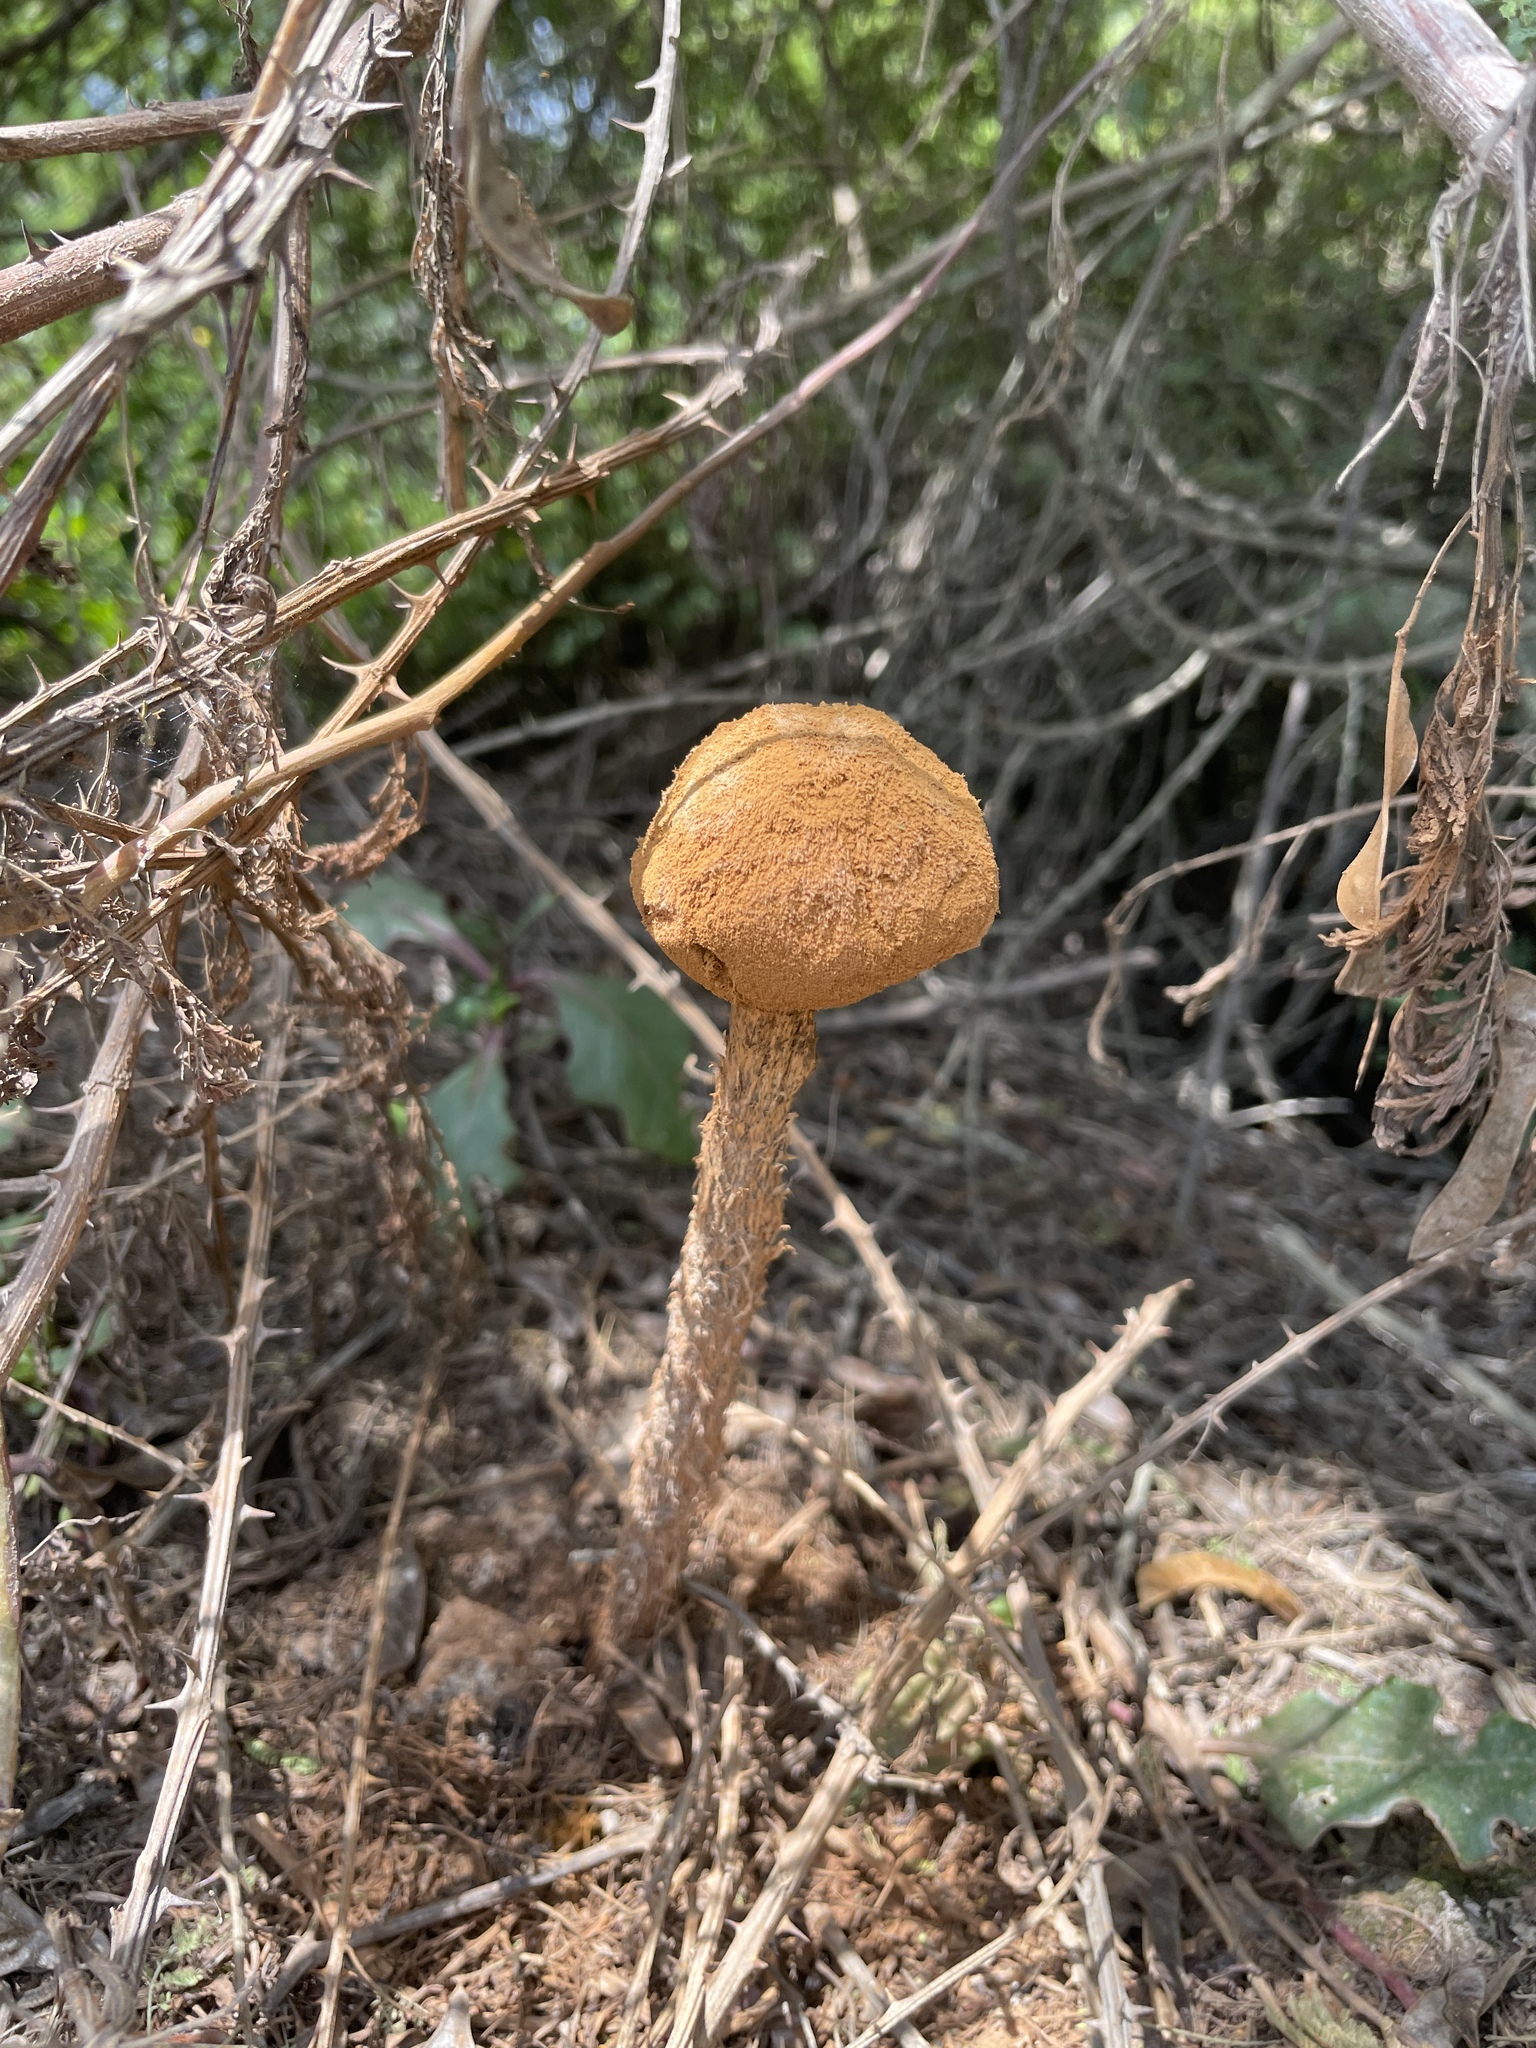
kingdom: Fungi
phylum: Basidiomycota
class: Agaricomycetes
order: Agaricales
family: Agaricaceae
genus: Battarrea
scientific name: Battarrea phalloides
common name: Sandy stiltball
